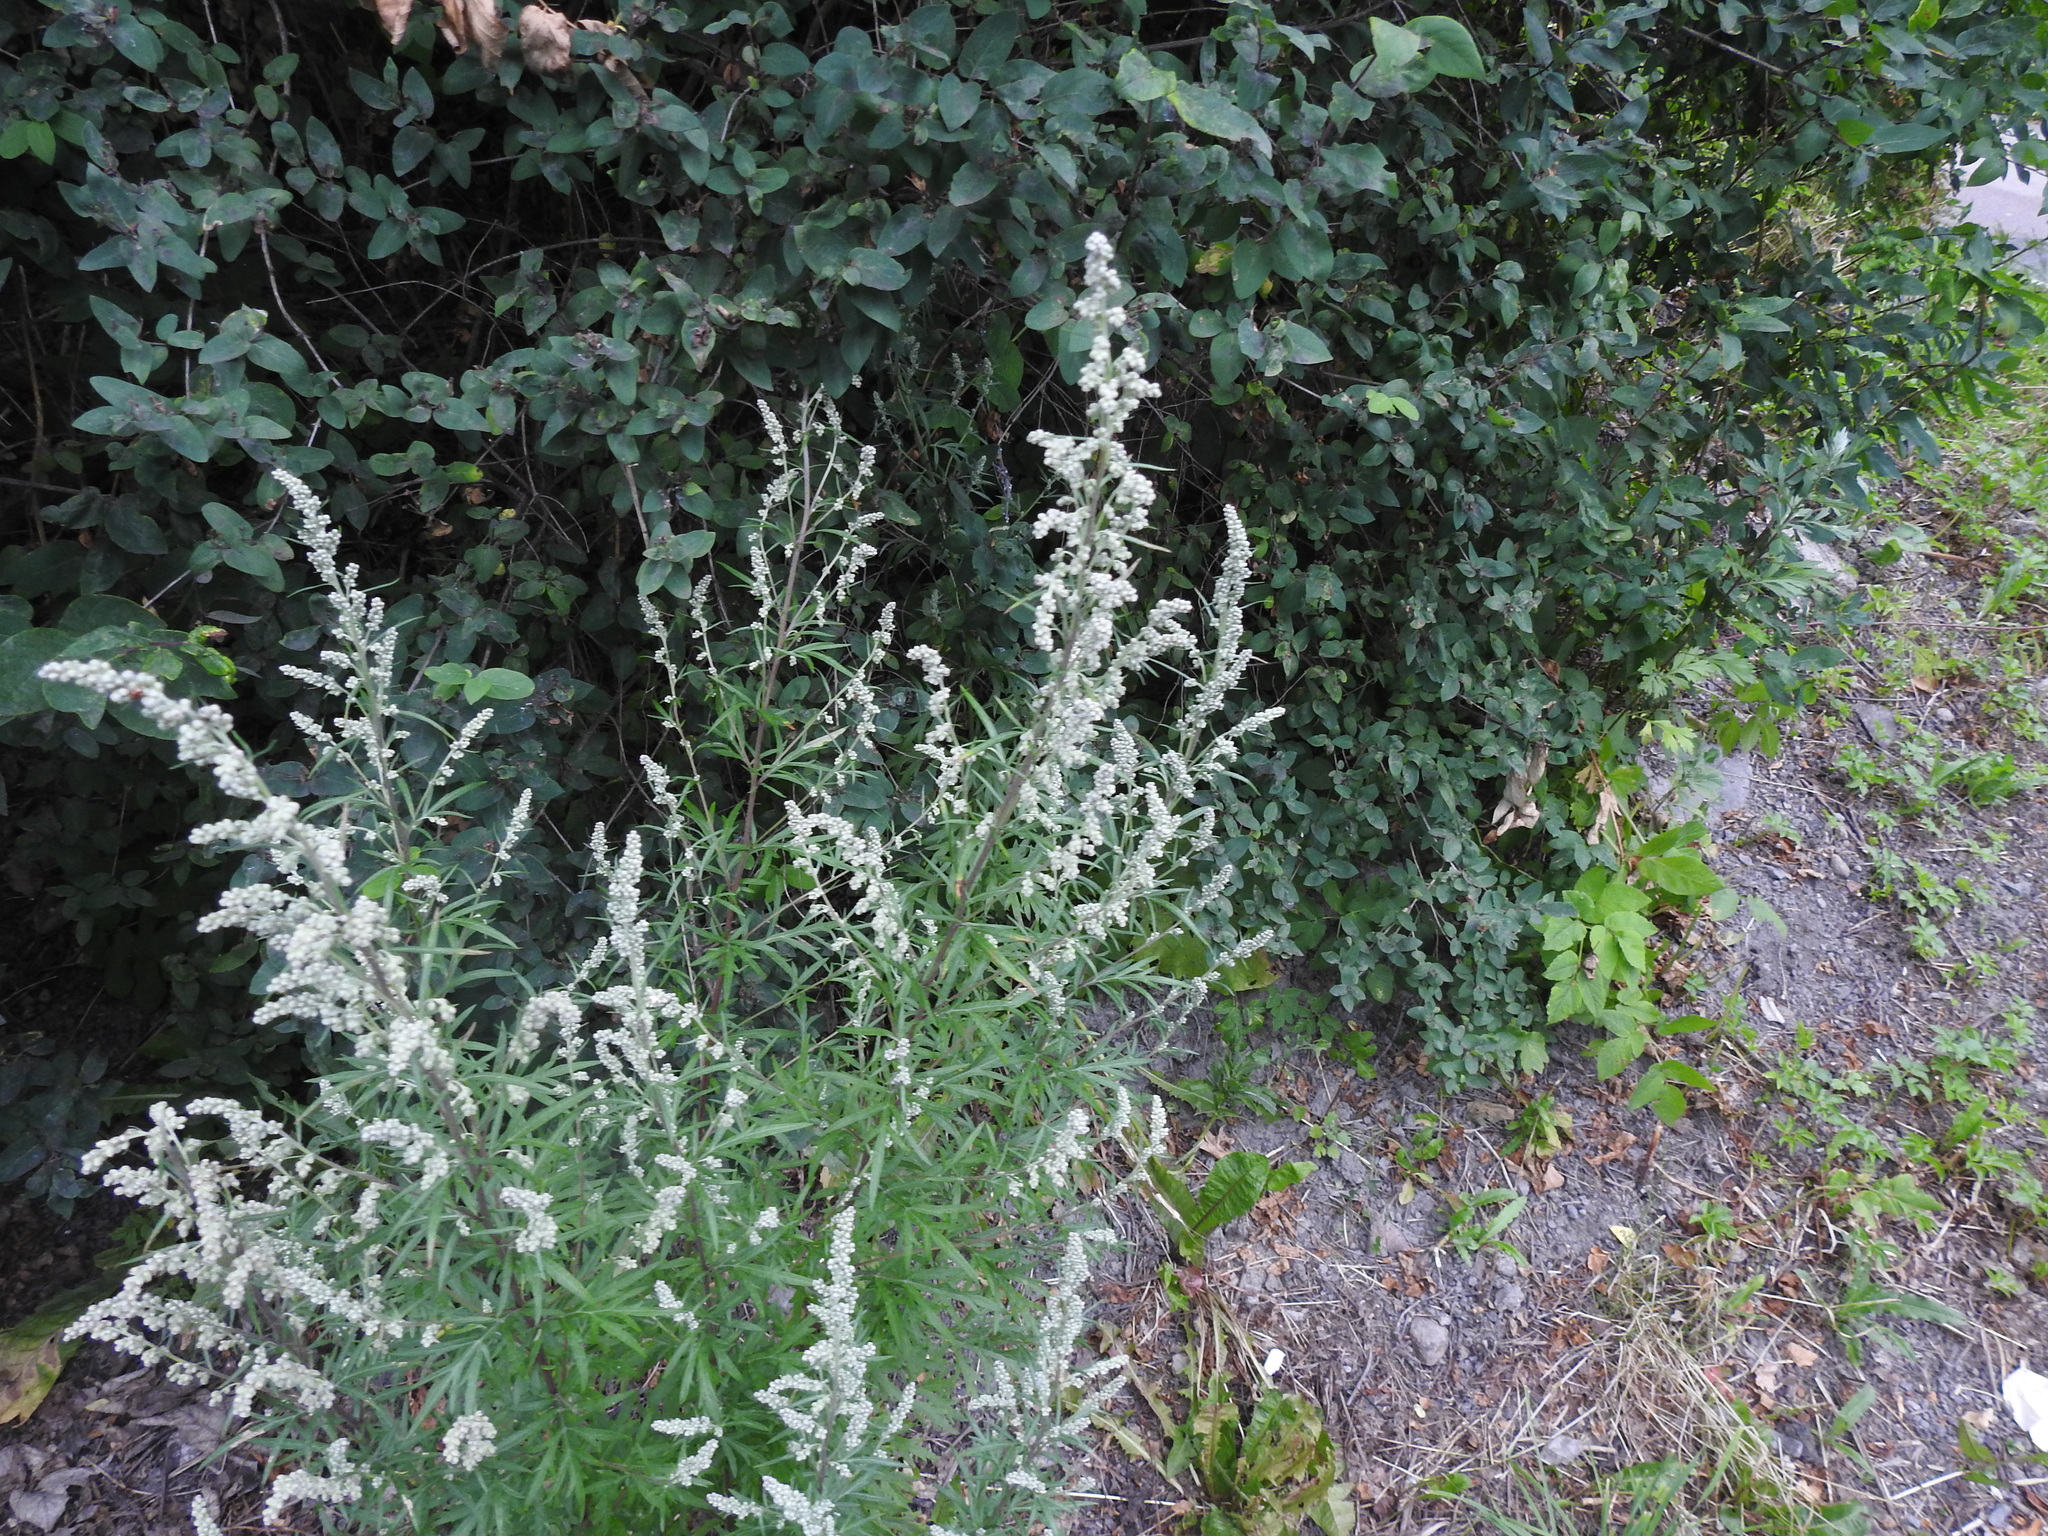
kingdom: Plantae
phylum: Tracheophyta
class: Magnoliopsida
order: Asterales
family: Asteraceae
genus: Artemisia
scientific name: Artemisia vulgaris
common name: Mugwort
